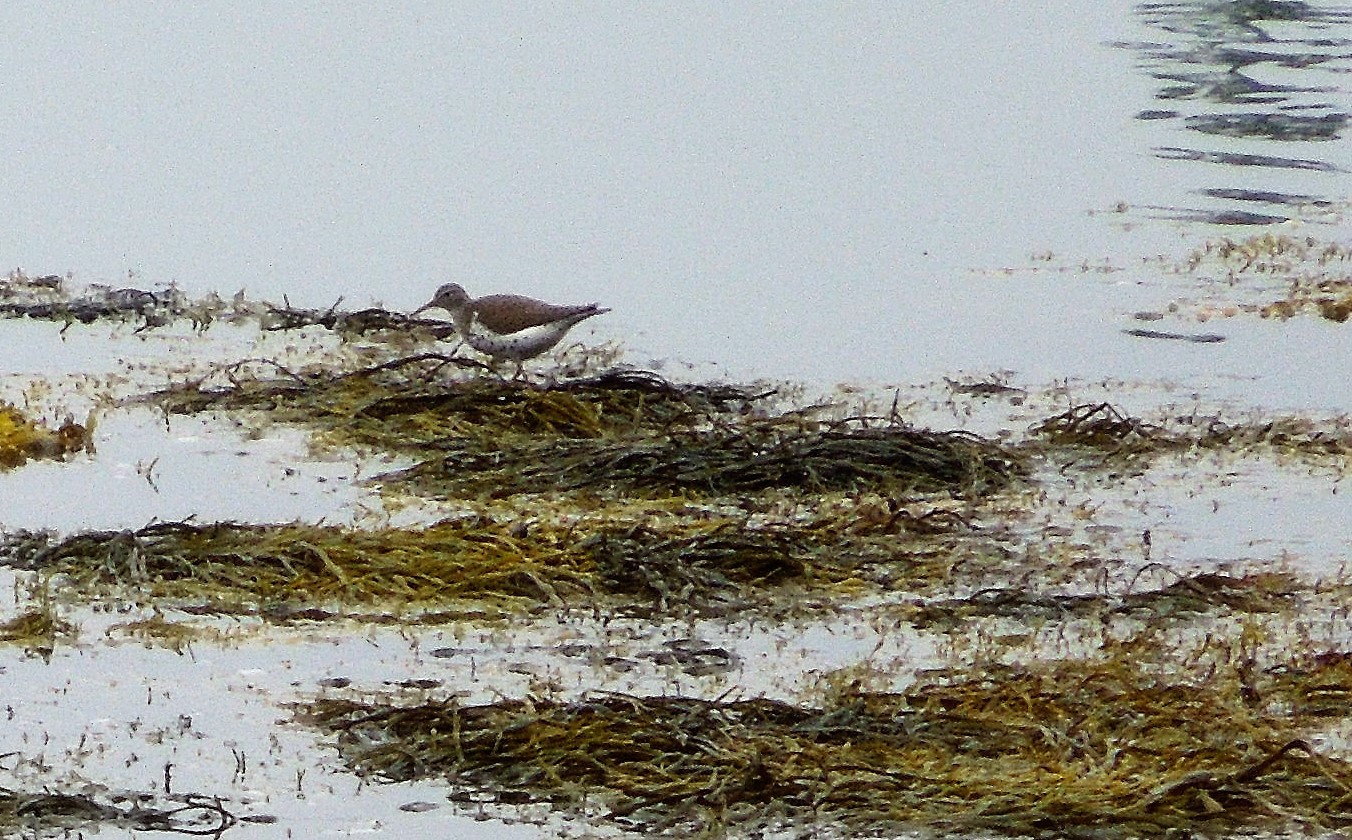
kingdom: Animalia
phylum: Chordata
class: Aves
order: Charadriiformes
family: Scolopacidae
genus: Actitis
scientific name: Actitis macularius
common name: Spotted sandpiper
